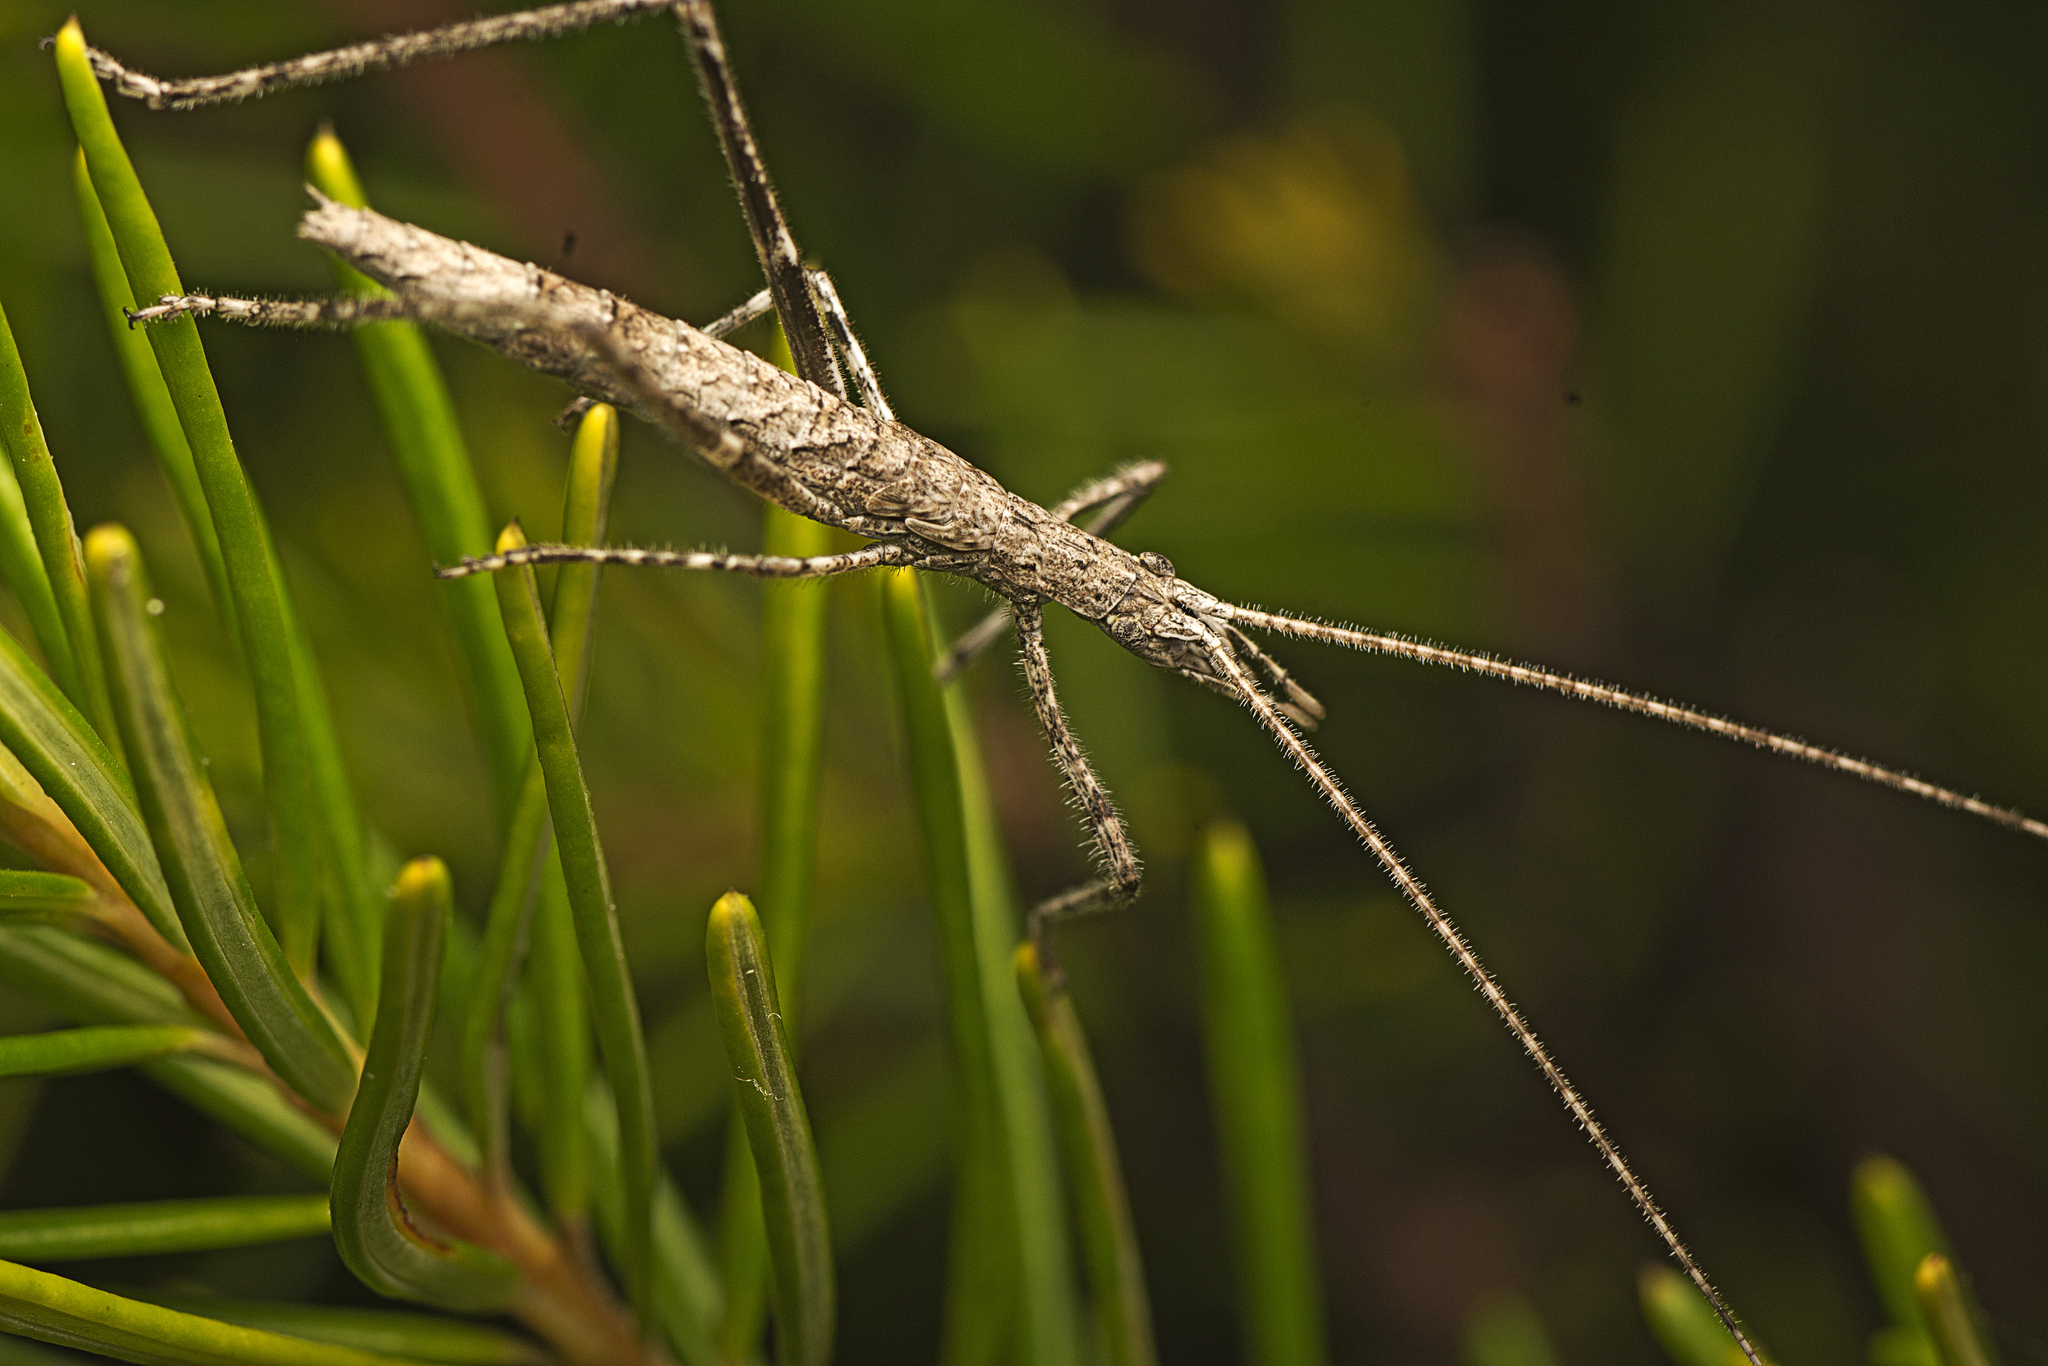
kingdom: Animalia
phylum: Arthropoda
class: Insecta
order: Orthoptera
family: Tettigoniidae
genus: Zaprochilus
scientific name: Zaprochilus australis
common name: Australian twig-mimicking katydid
